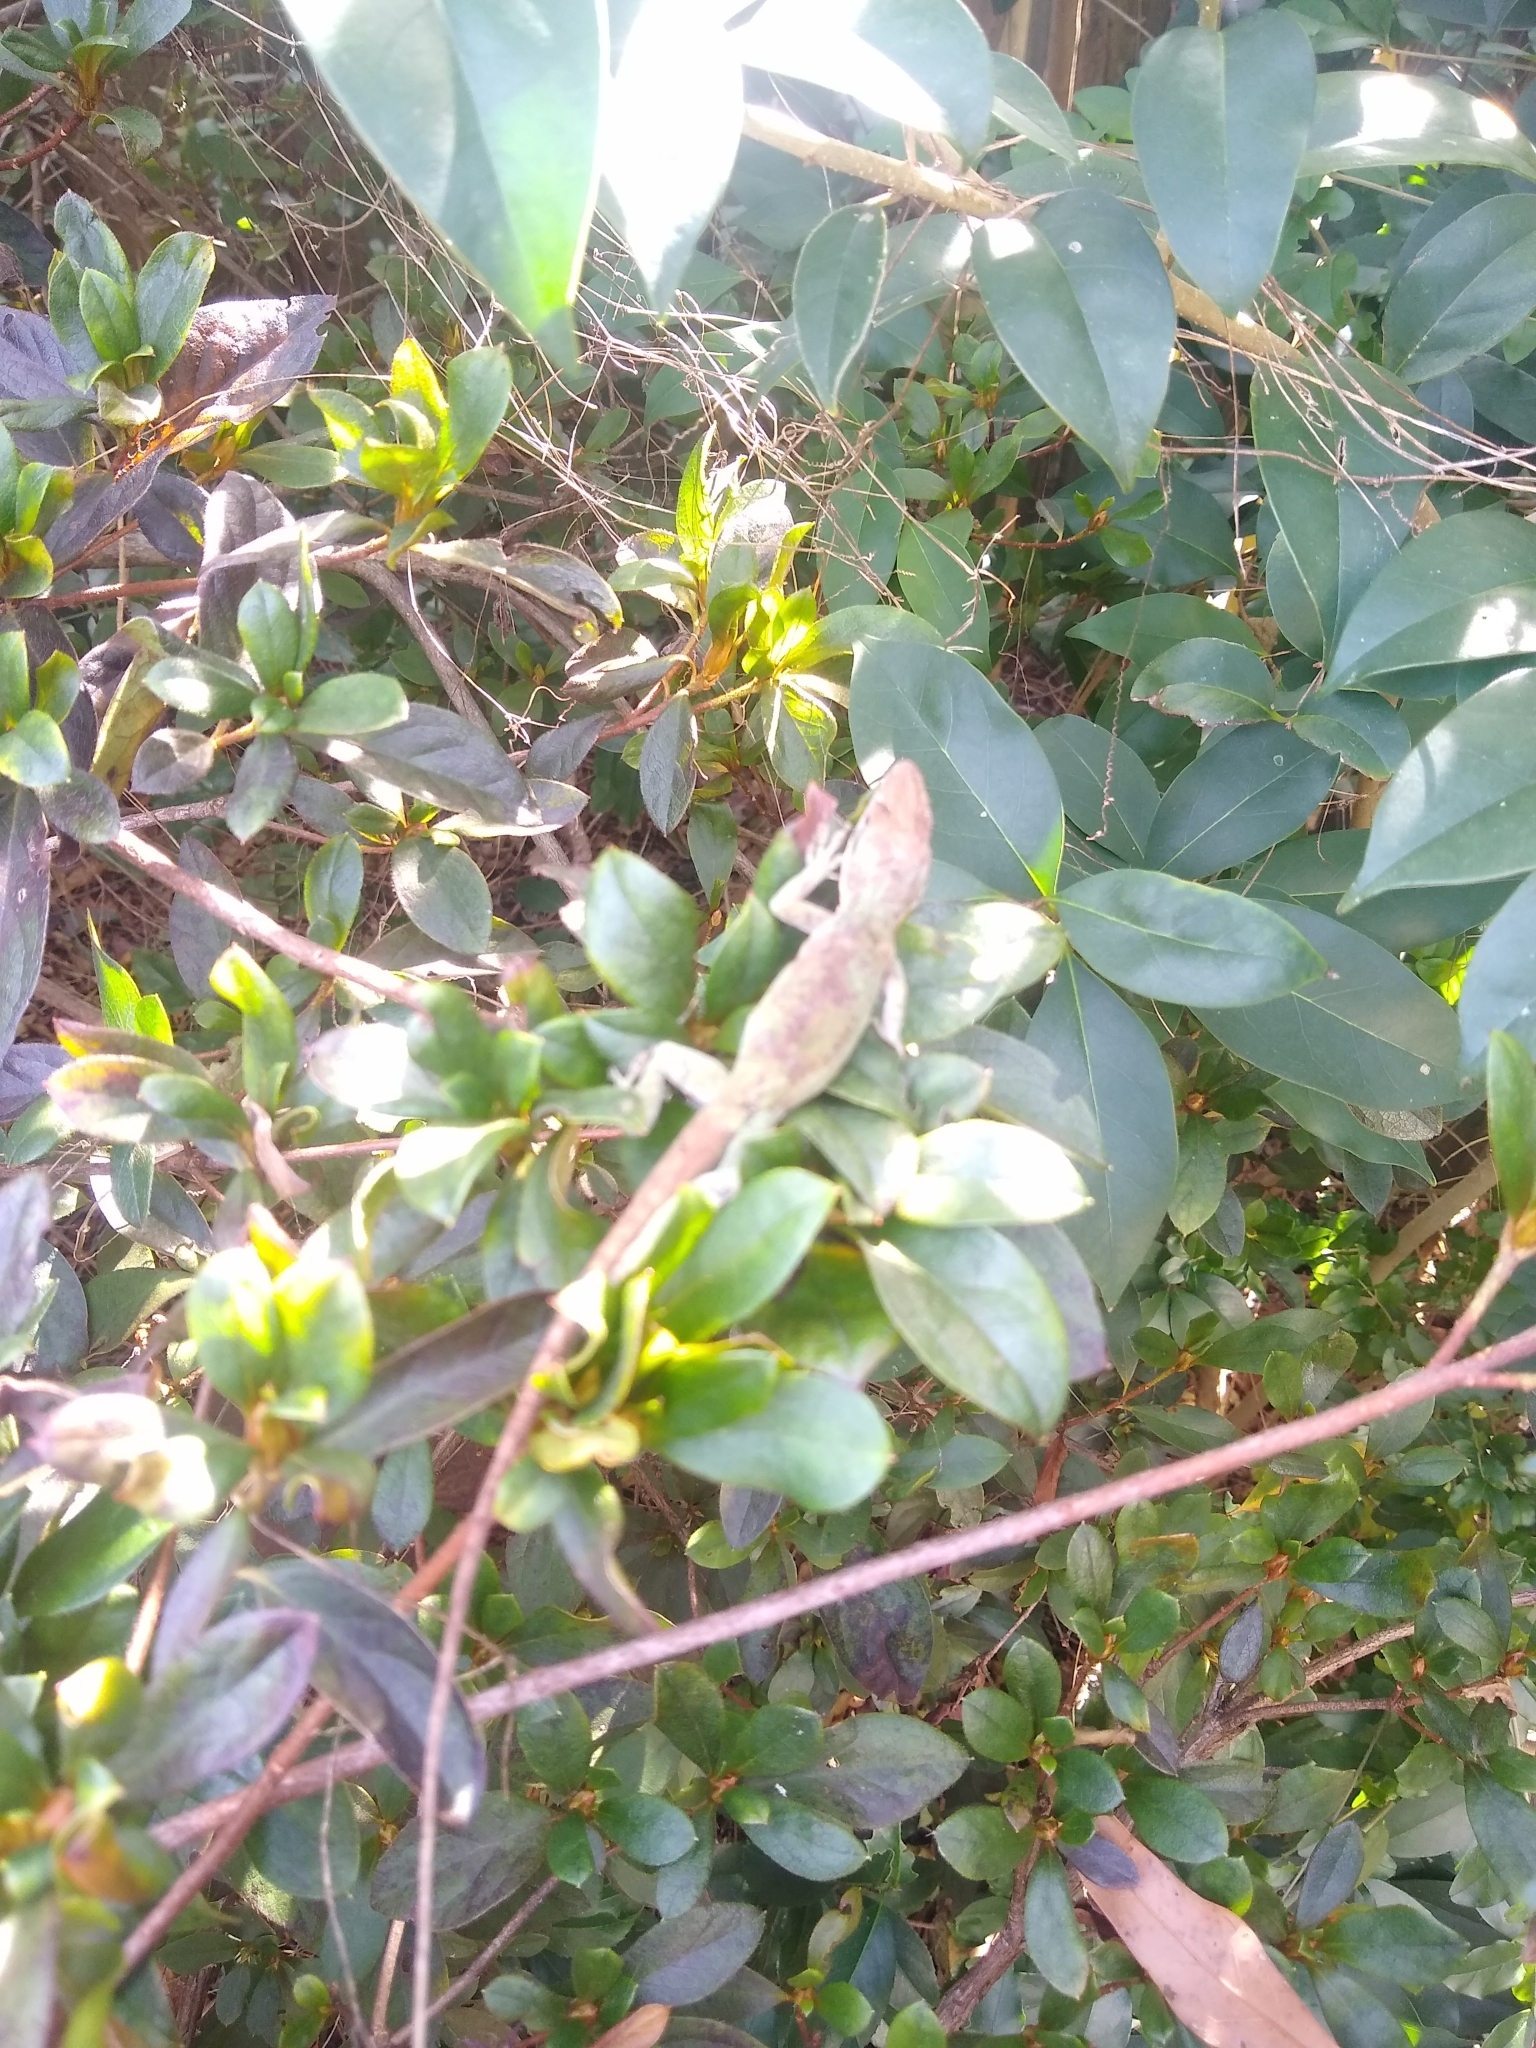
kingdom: Animalia
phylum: Chordata
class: Squamata
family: Dactyloidae
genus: Anolis
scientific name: Anolis carolinensis
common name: Green anole
